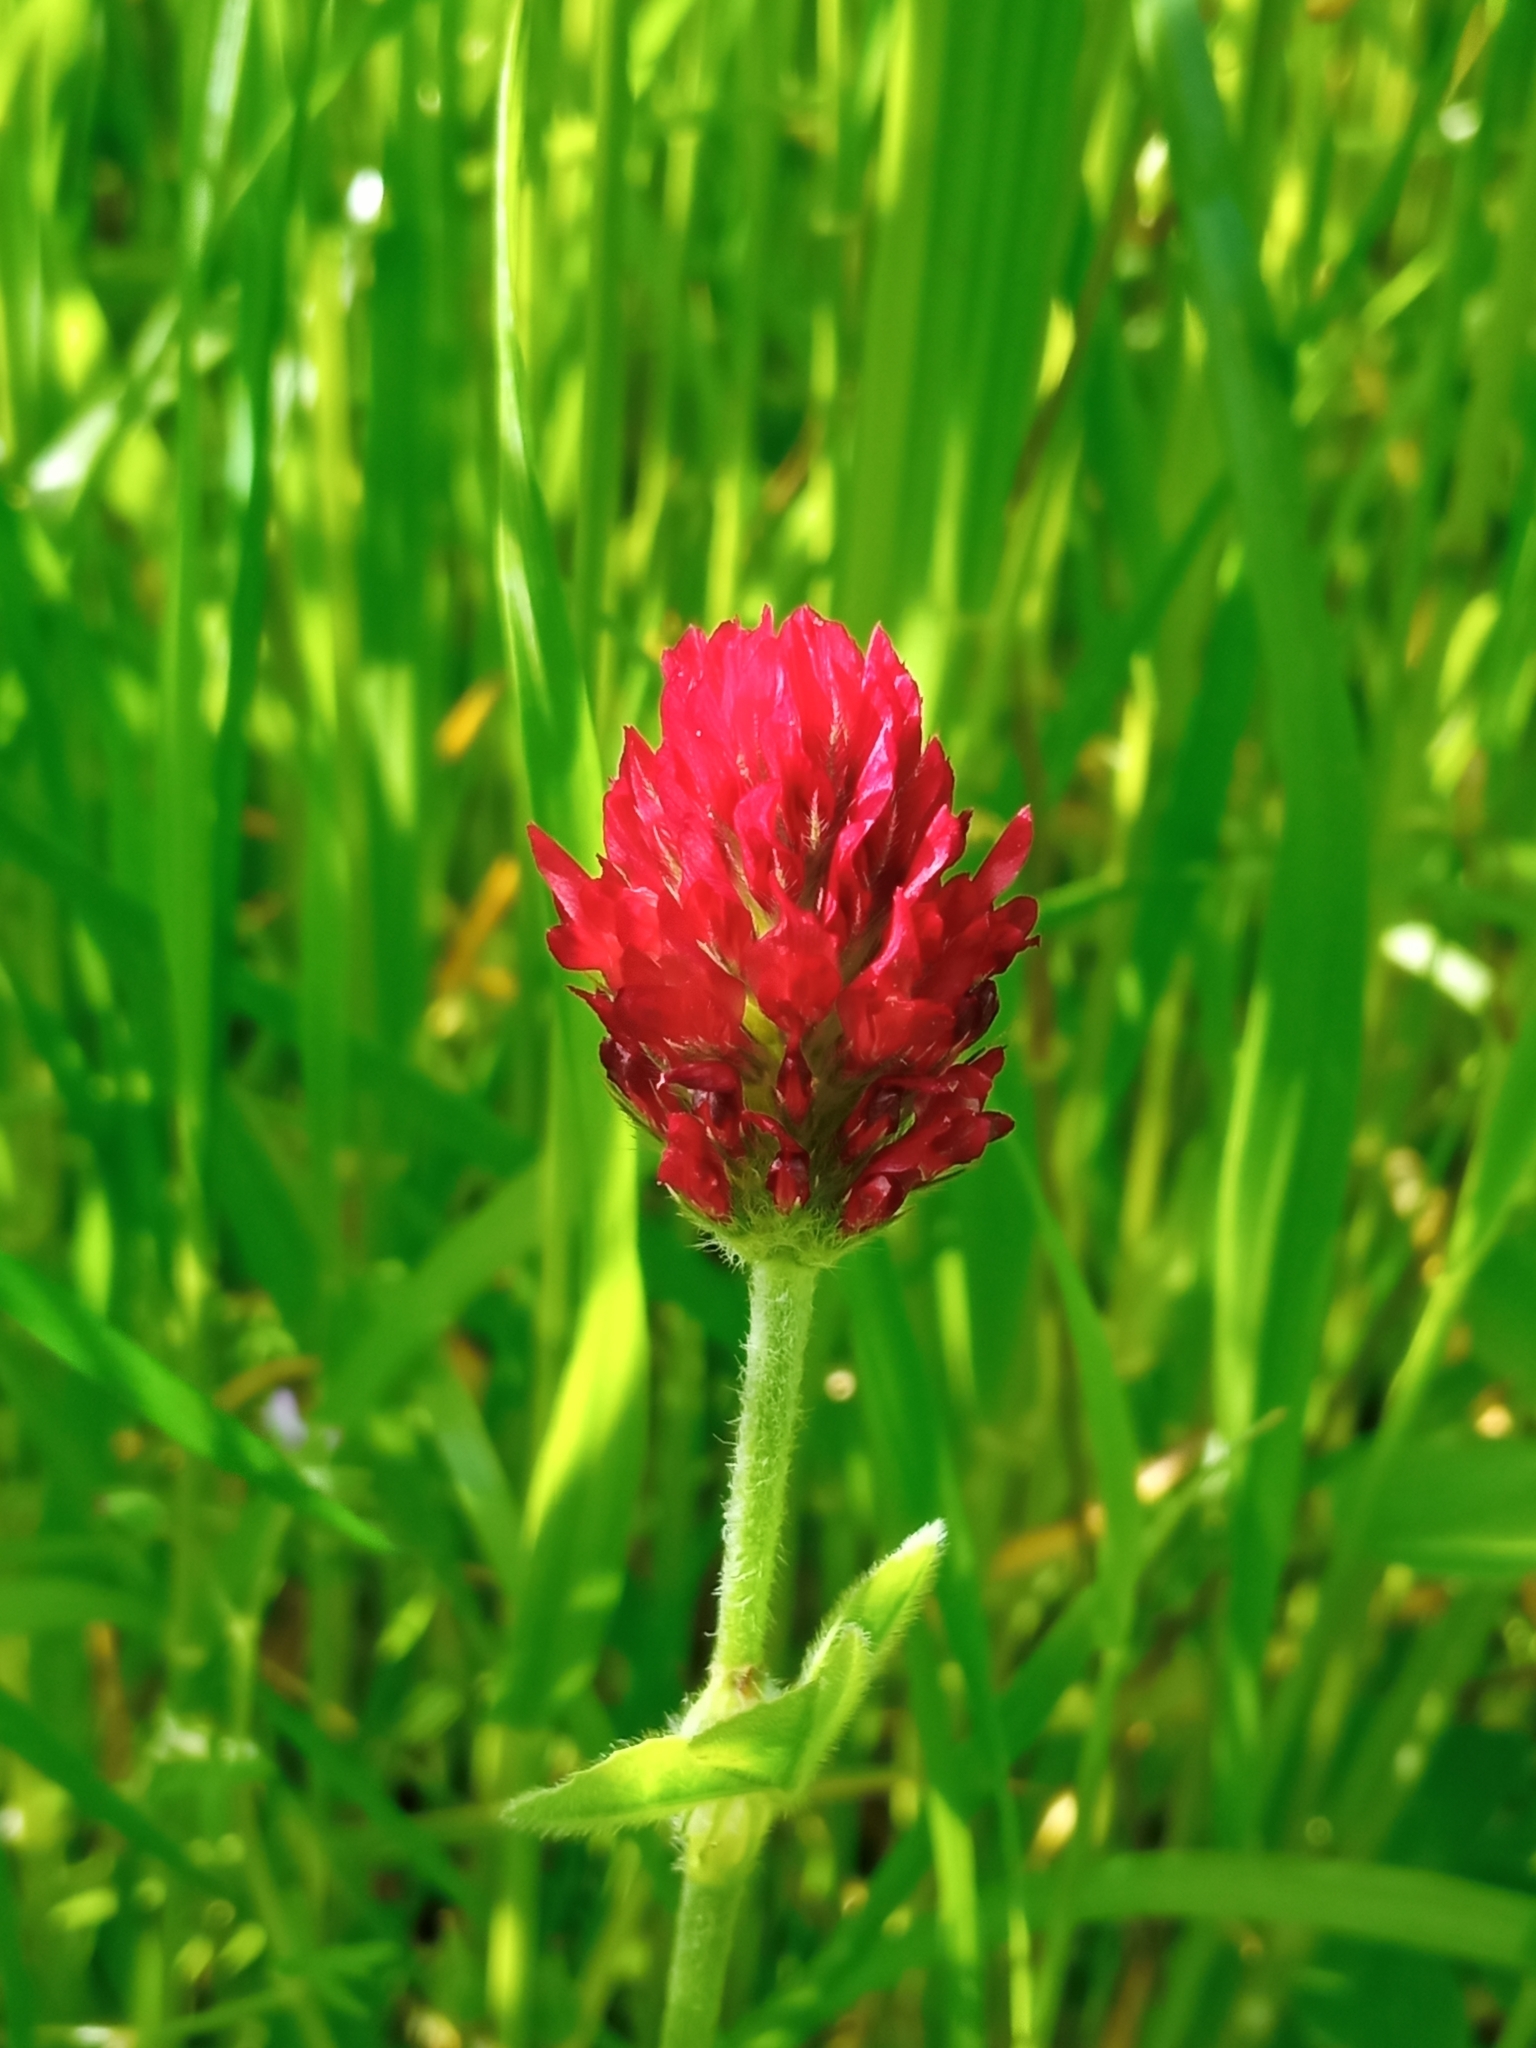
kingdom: Plantae
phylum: Tracheophyta
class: Magnoliopsida
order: Fabales
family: Fabaceae
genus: Trifolium
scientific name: Trifolium incarnatum
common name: Crimson clover
